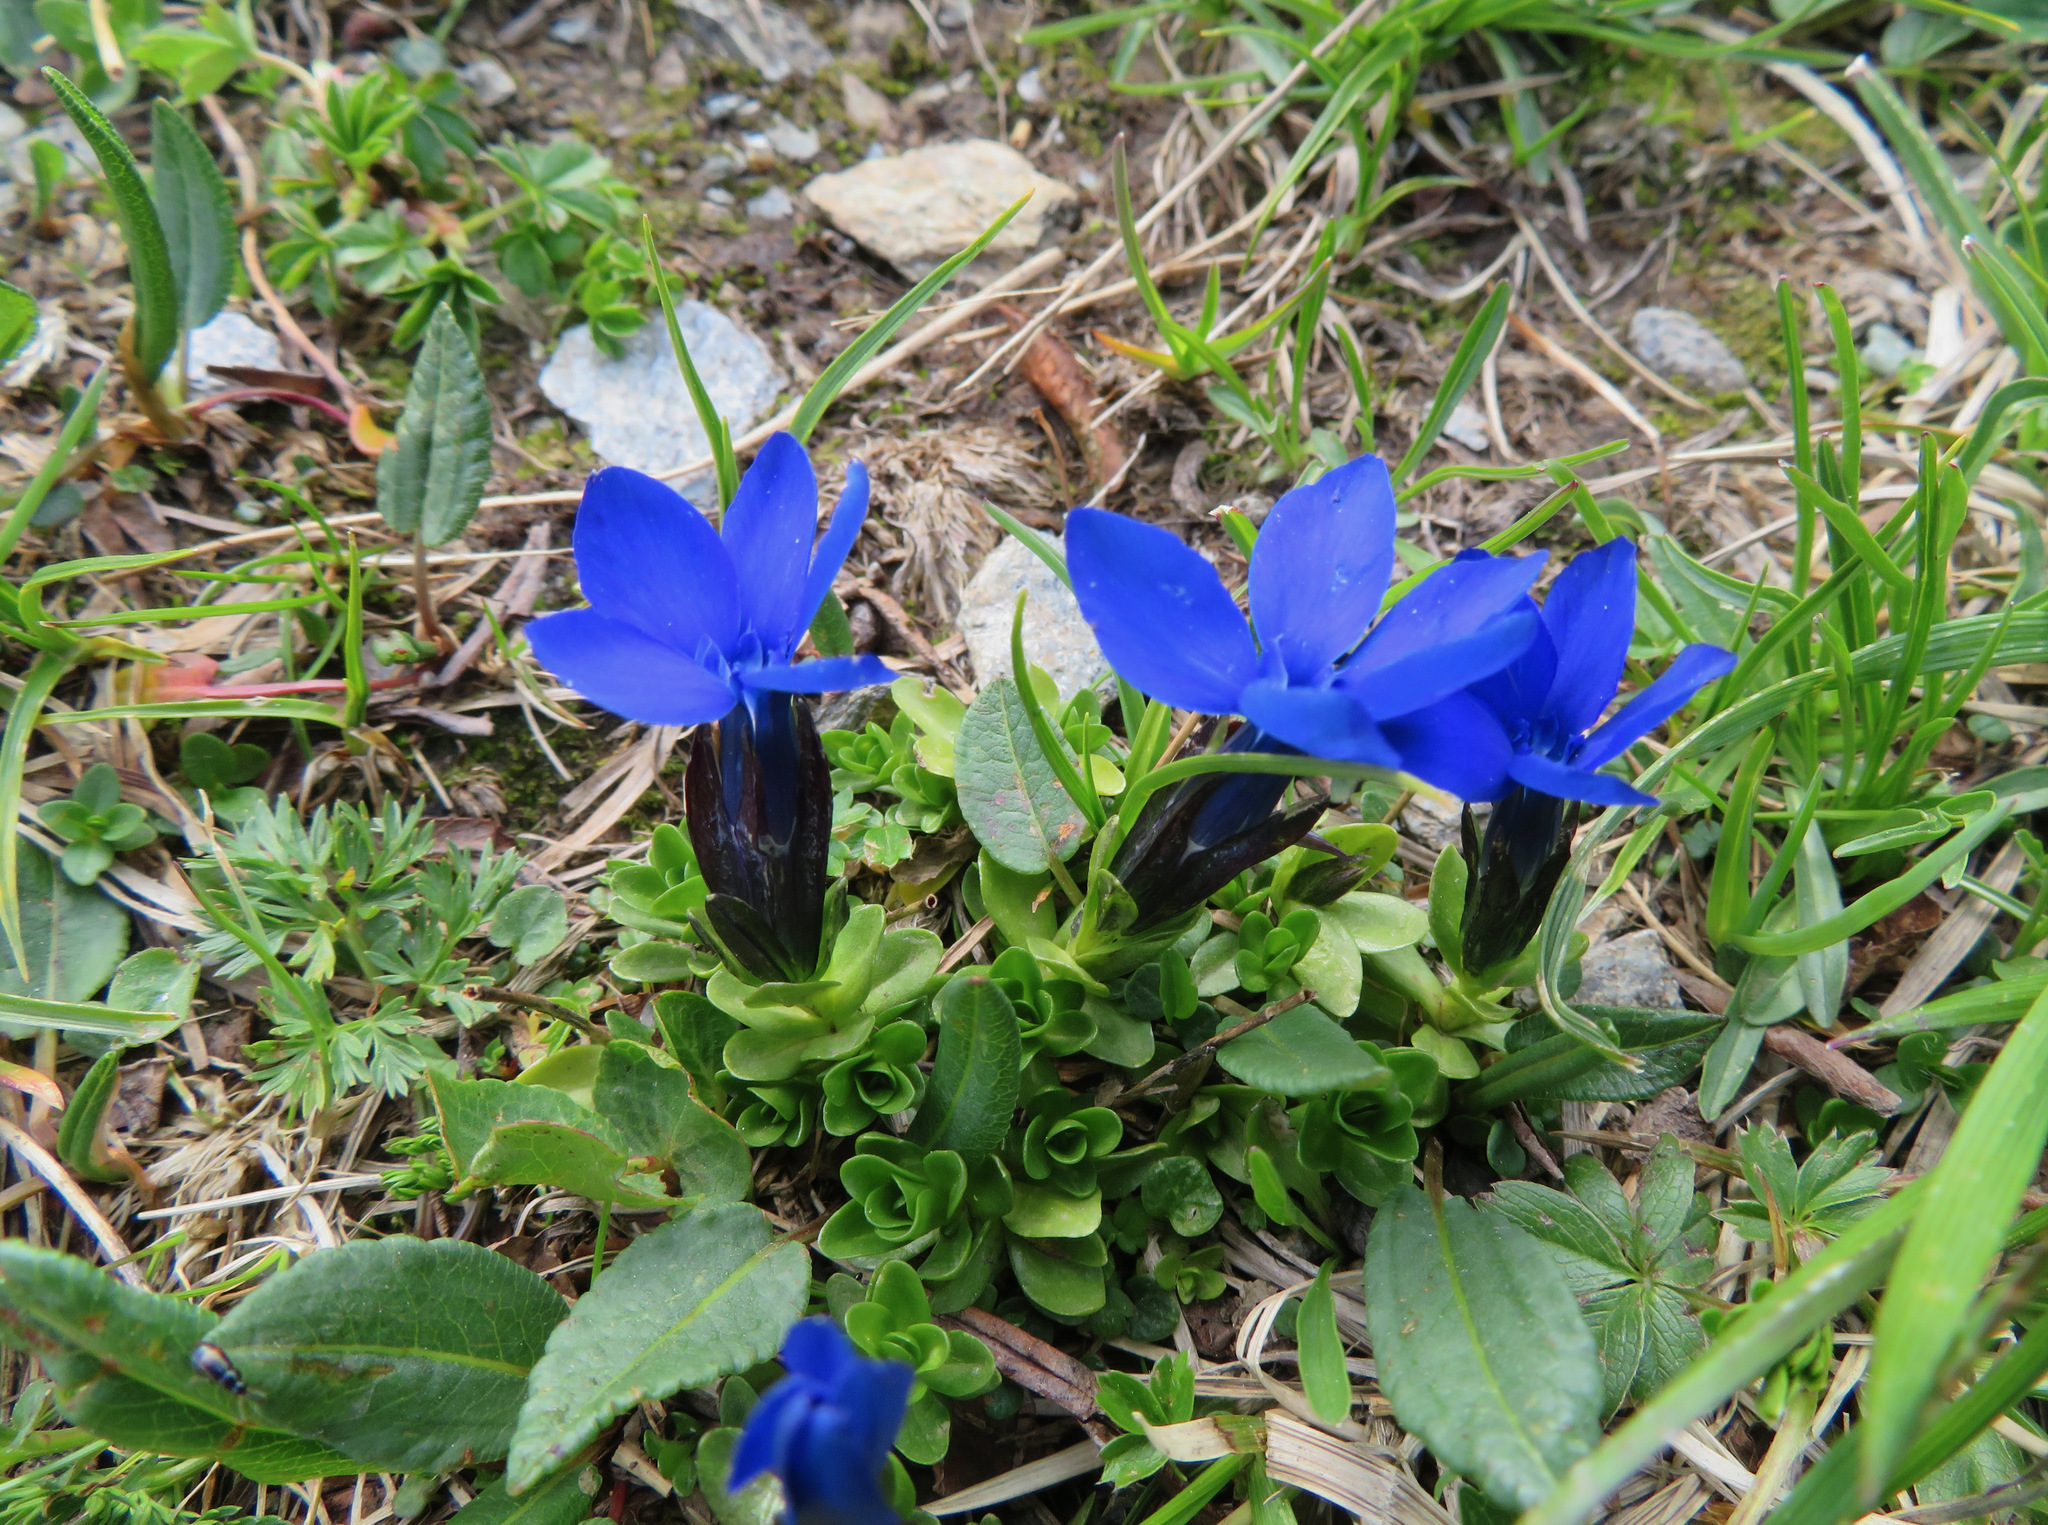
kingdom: Plantae
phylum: Tracheophyta
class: Magnoliopsida
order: Gentianales
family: Gentianaceae
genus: Gentiana
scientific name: Gentiana bavarica
